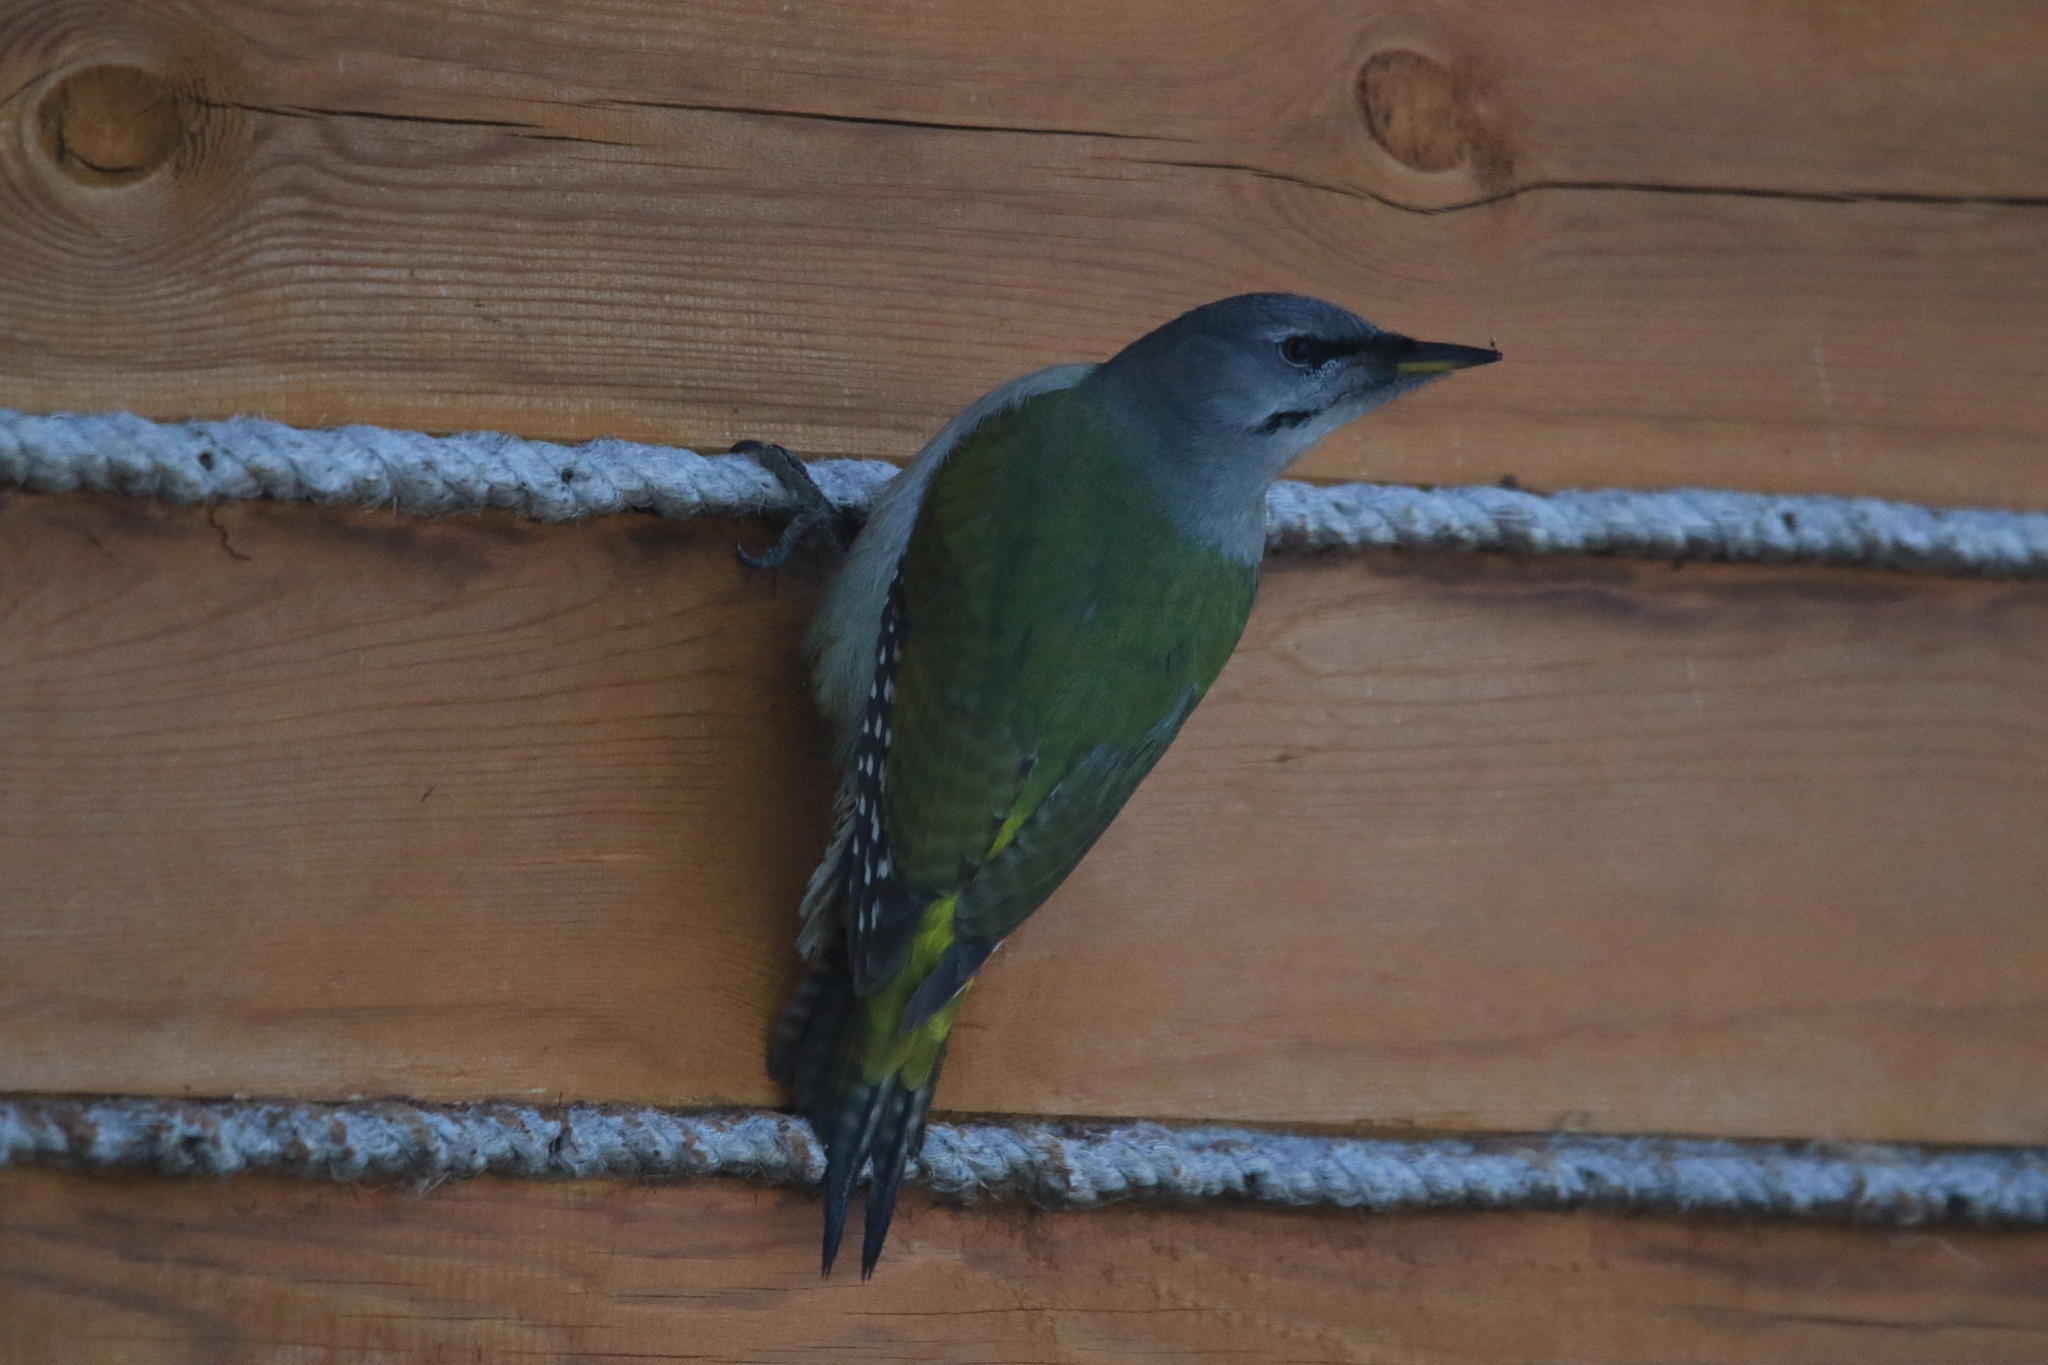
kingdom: Animalia
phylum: Chordata
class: Aves
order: Piciformes
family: Picidae
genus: Picus
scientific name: Picus canus
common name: Grey-headed woodpecker
